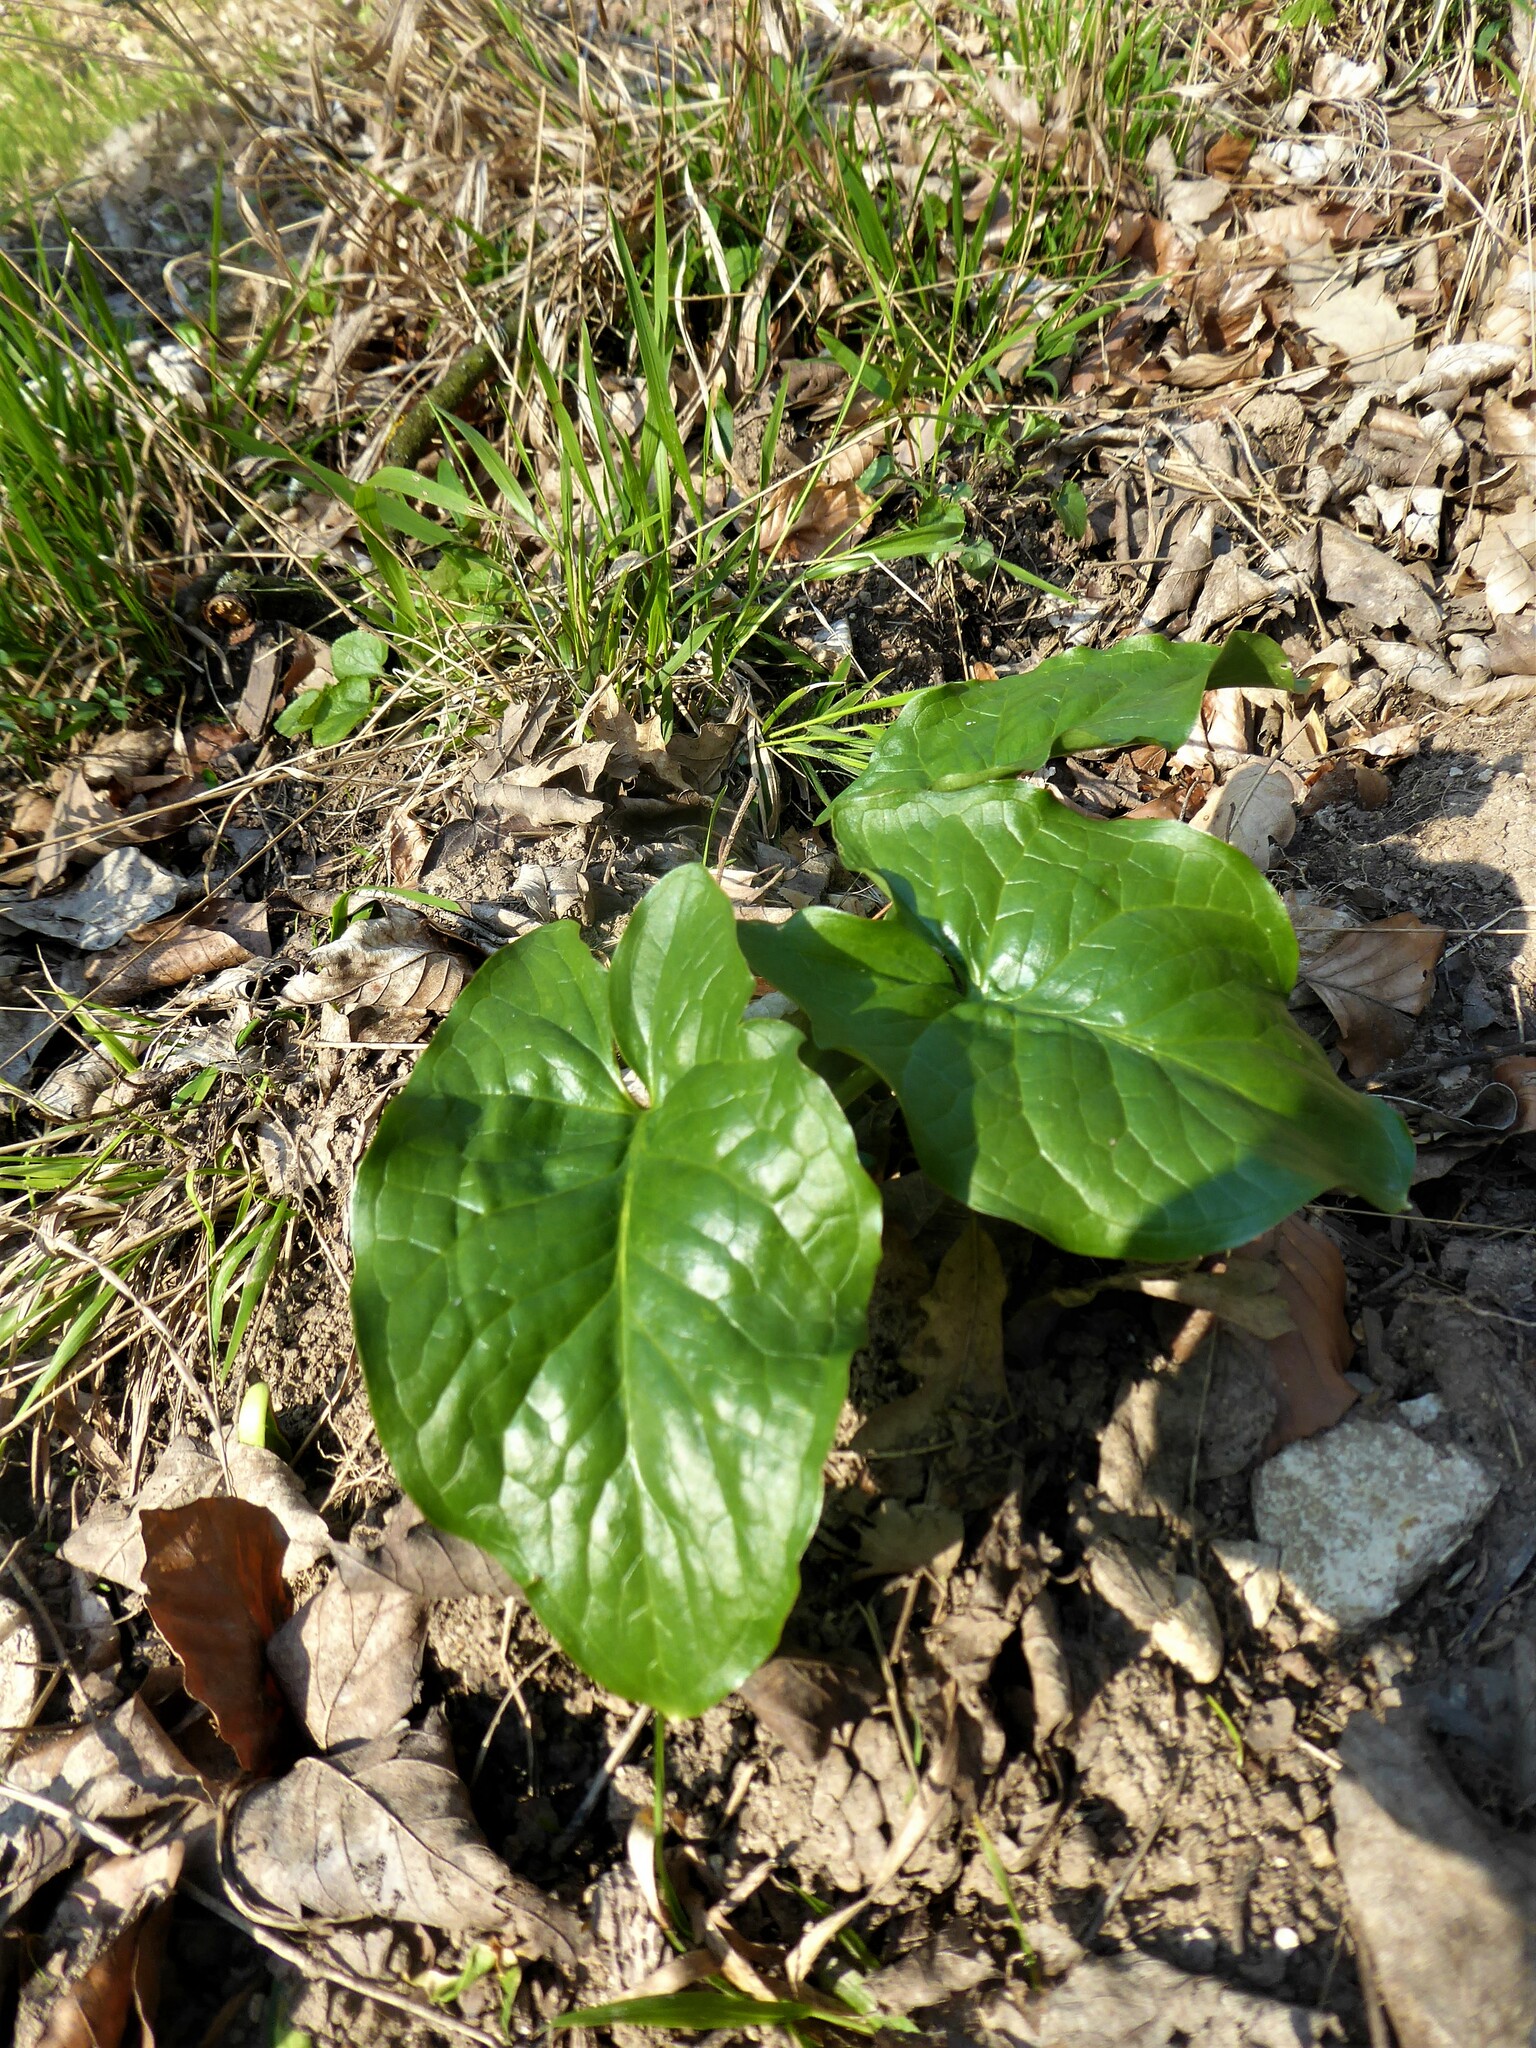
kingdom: Plantae
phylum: Tracheophyta
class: Liliopsida
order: Alismatales
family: Araceae
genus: Arum
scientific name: Arum cylindraceum
